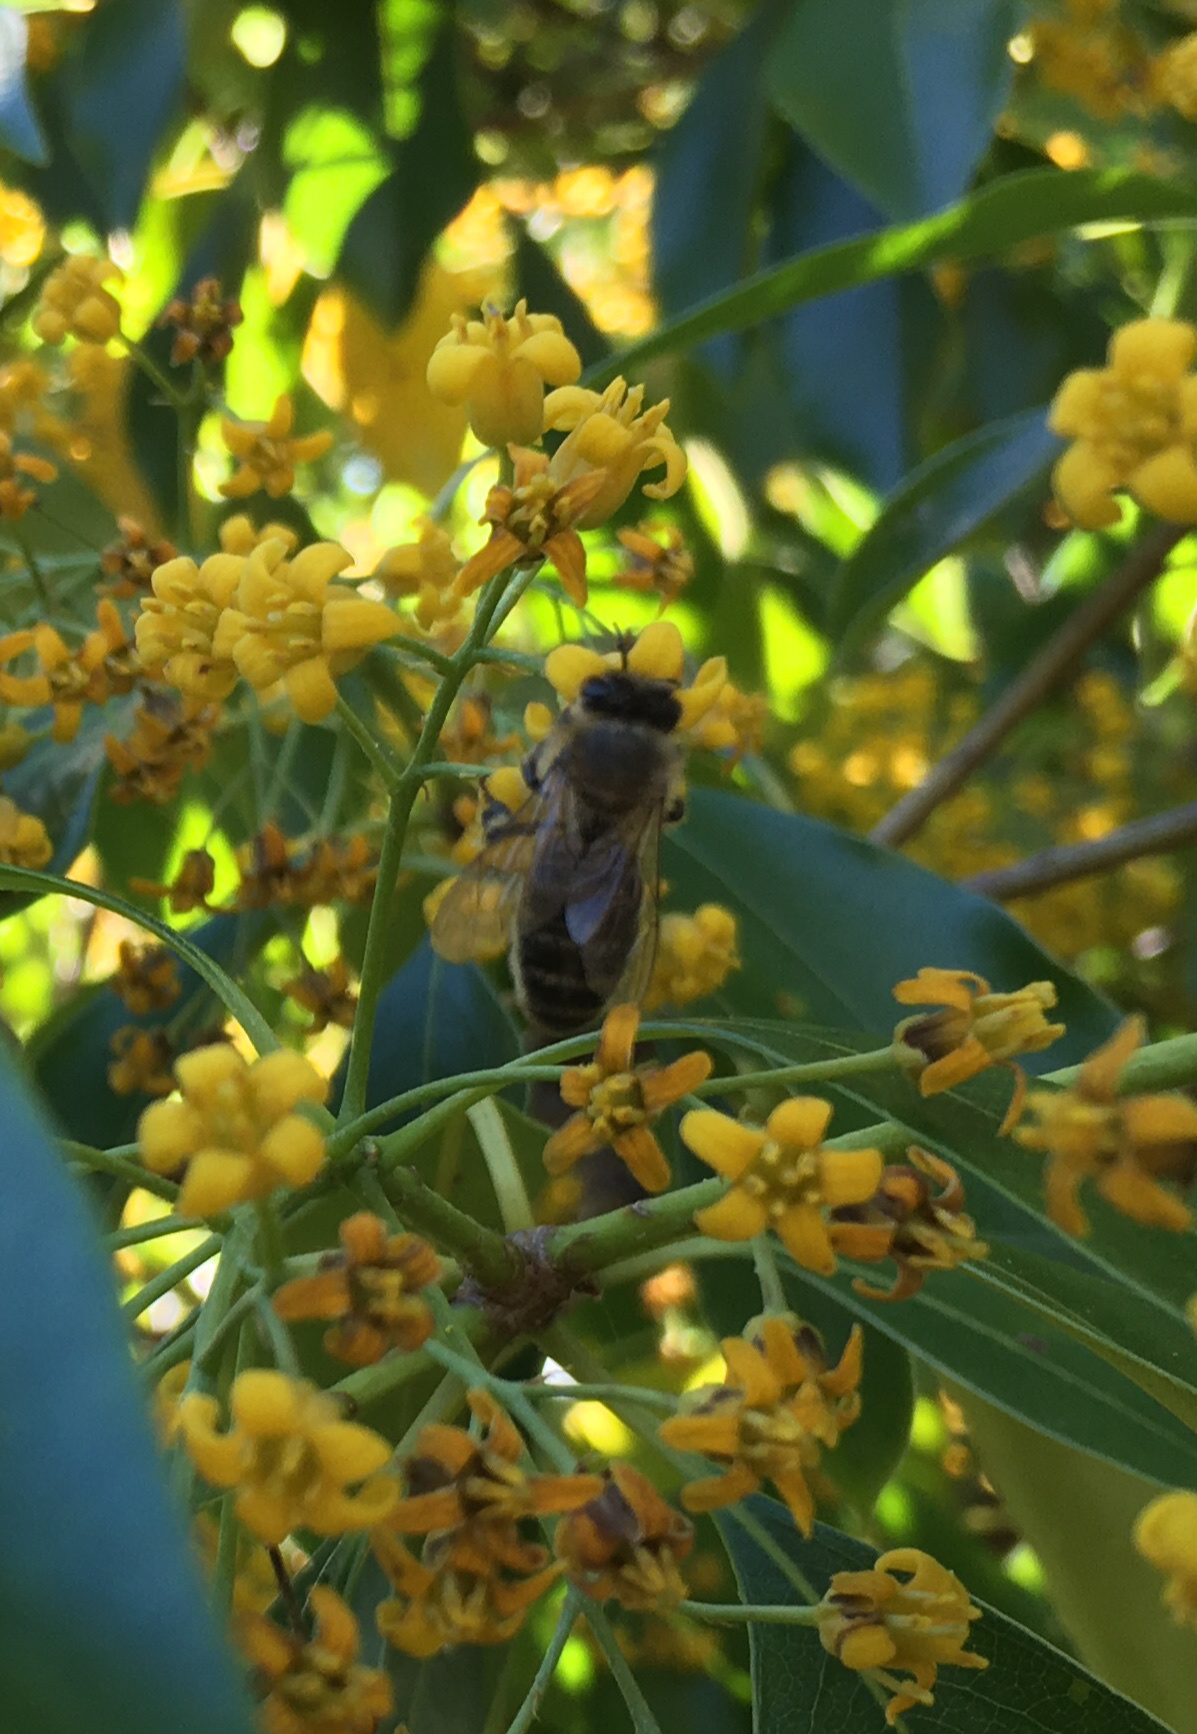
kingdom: Animalia
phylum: Arthropoda
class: Insecta
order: Hymenoptera
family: Apidae
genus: Apis
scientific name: Apis mellifera
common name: Honey bee
